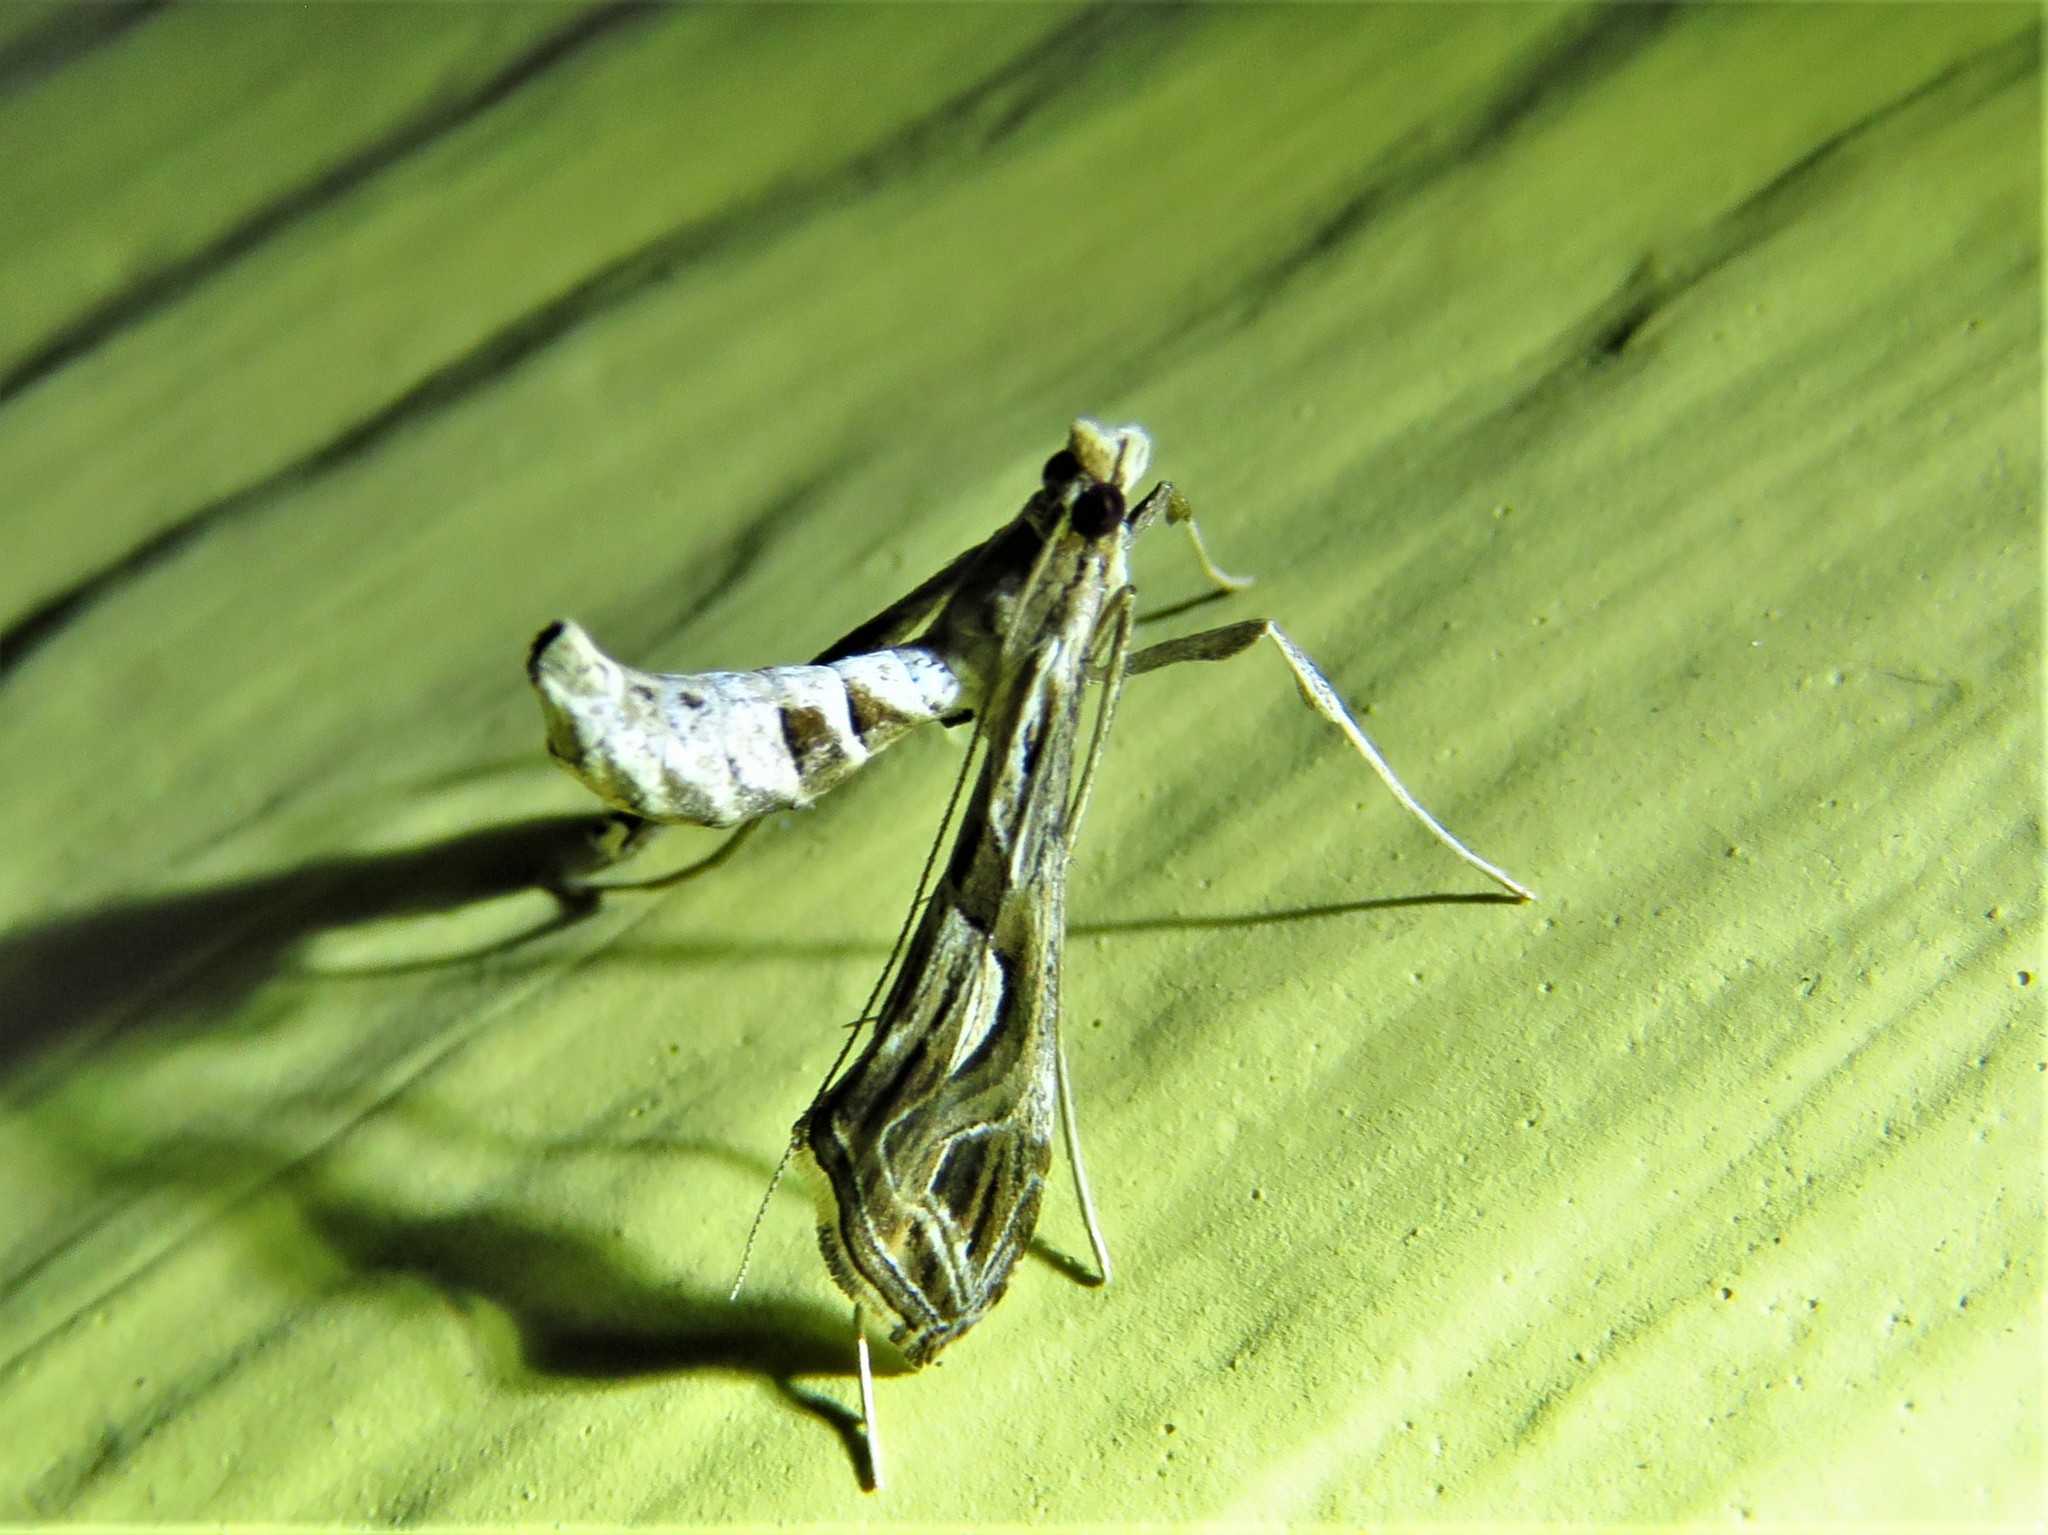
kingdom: Animalia
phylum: Arthropoda
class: Insecta
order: Lepidoptera
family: Crambidae
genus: Lineodes
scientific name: Lineodes integra
